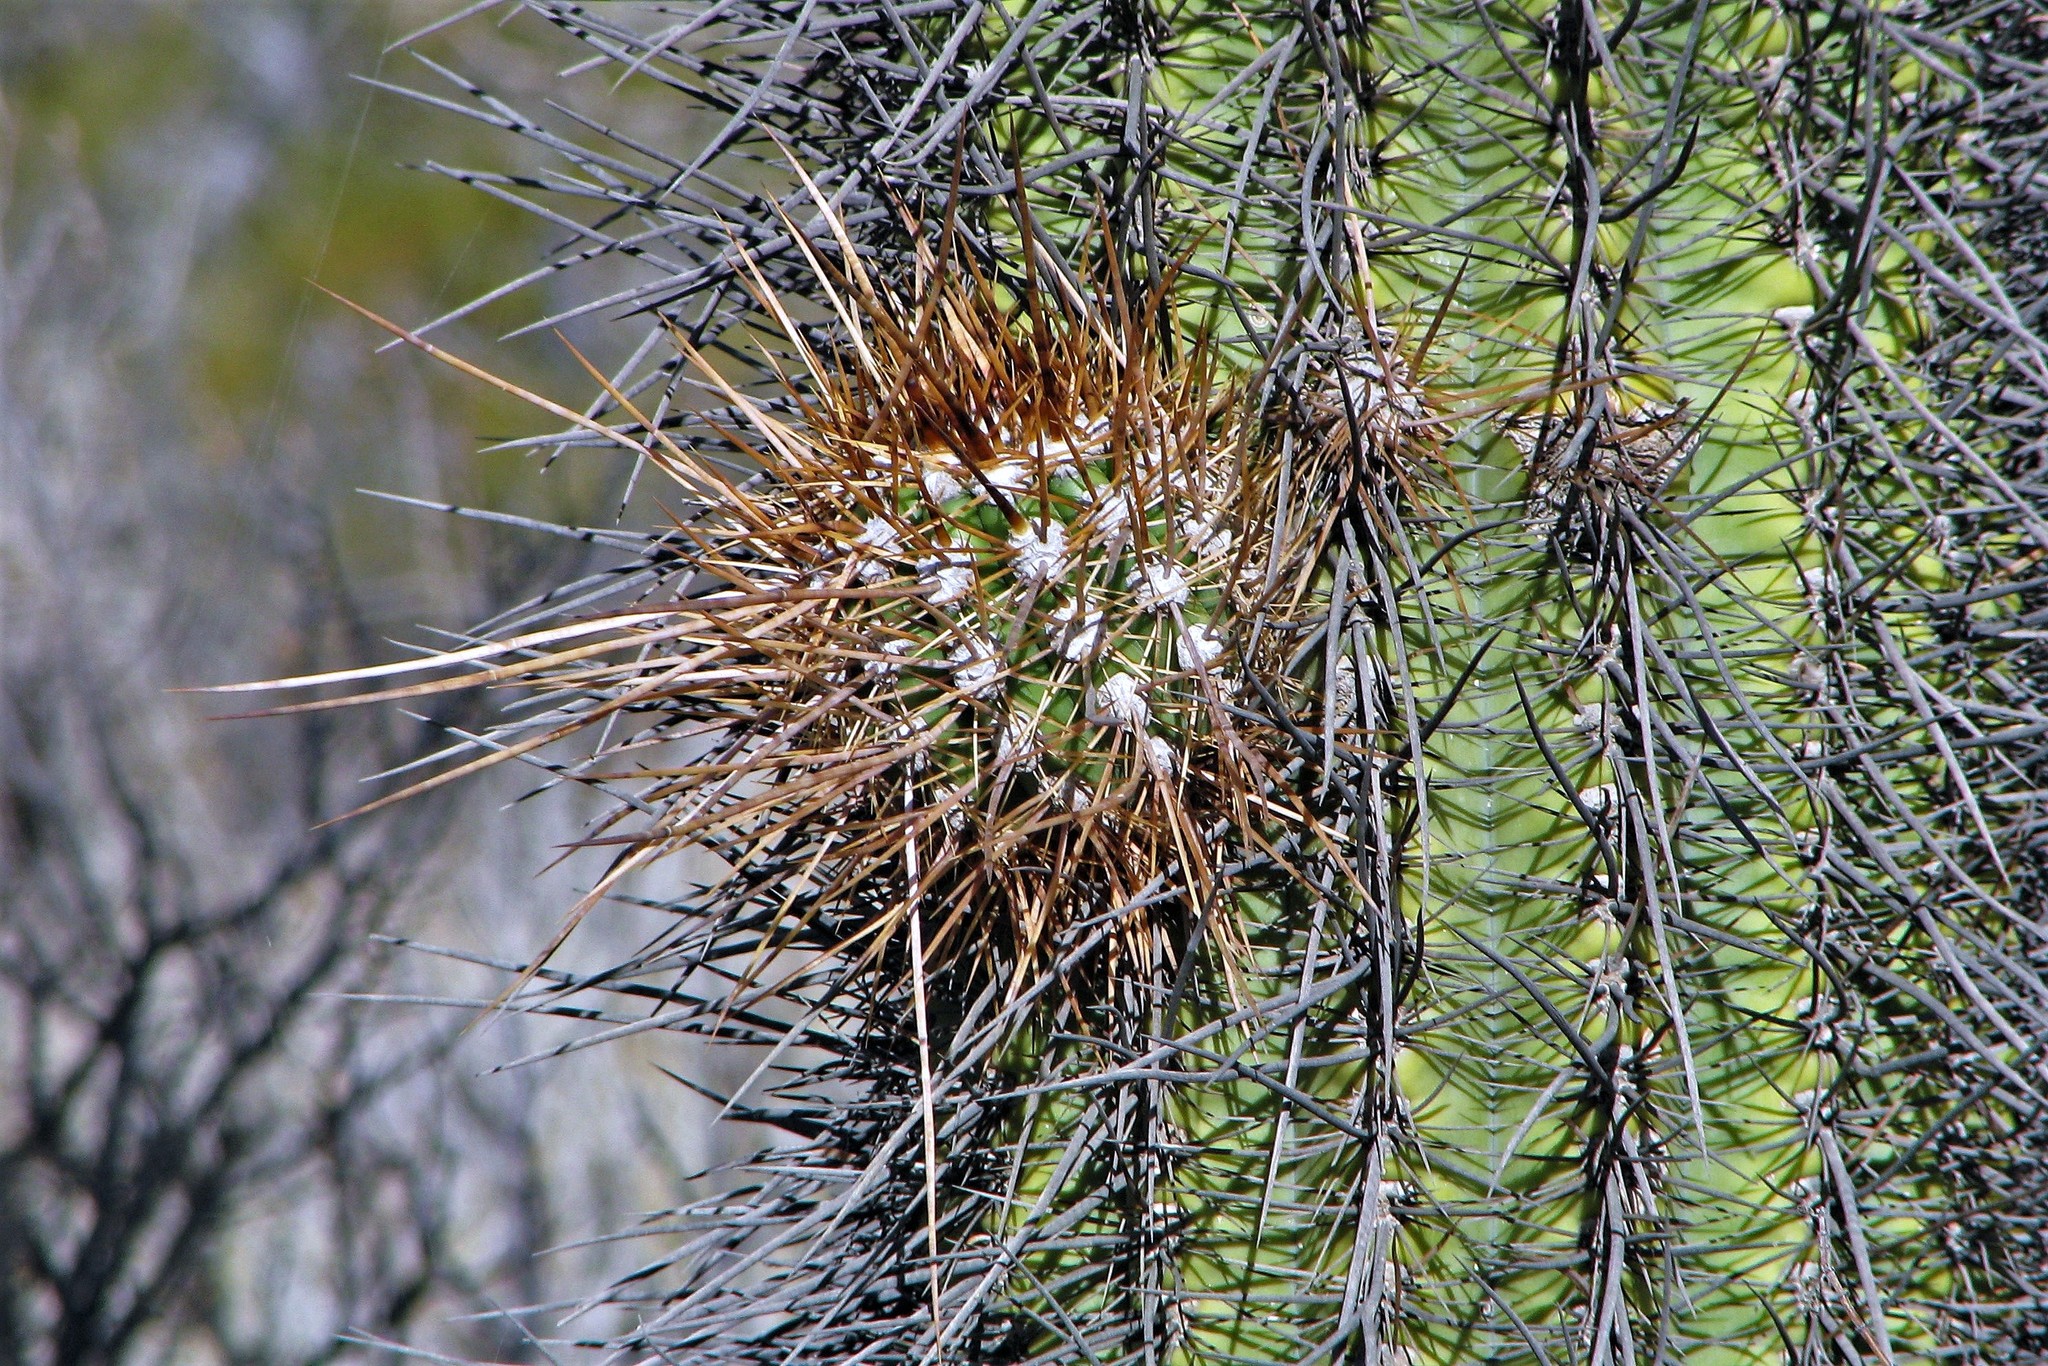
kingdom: Plantae
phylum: Tracheophyta
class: Magnoliopsida
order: Caryophyllales
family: Cactaceae
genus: Leucostele
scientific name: Leucostele atacamensis
